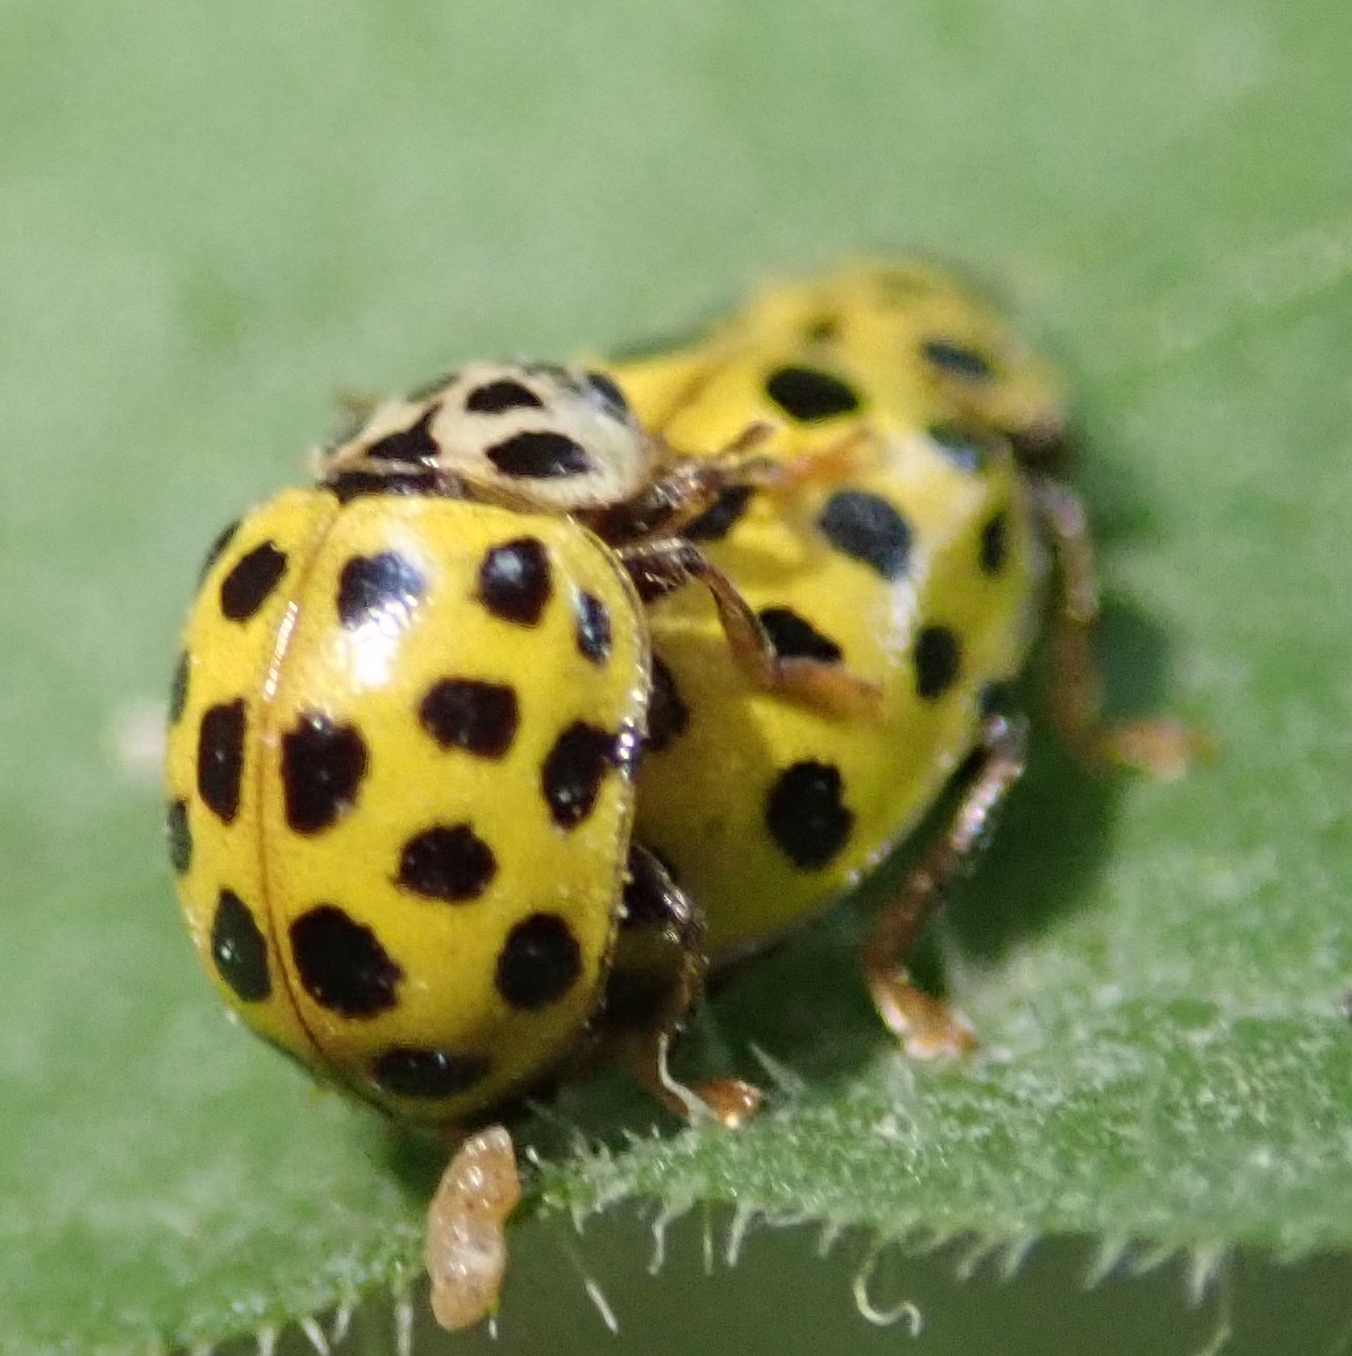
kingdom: Animalia
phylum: Arthropoda
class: Insecta
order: Coleoptera
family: Coccinellidae
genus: Psyllobora
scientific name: Psyllobora vigintiduopunctata
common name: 22-spot ladybird
